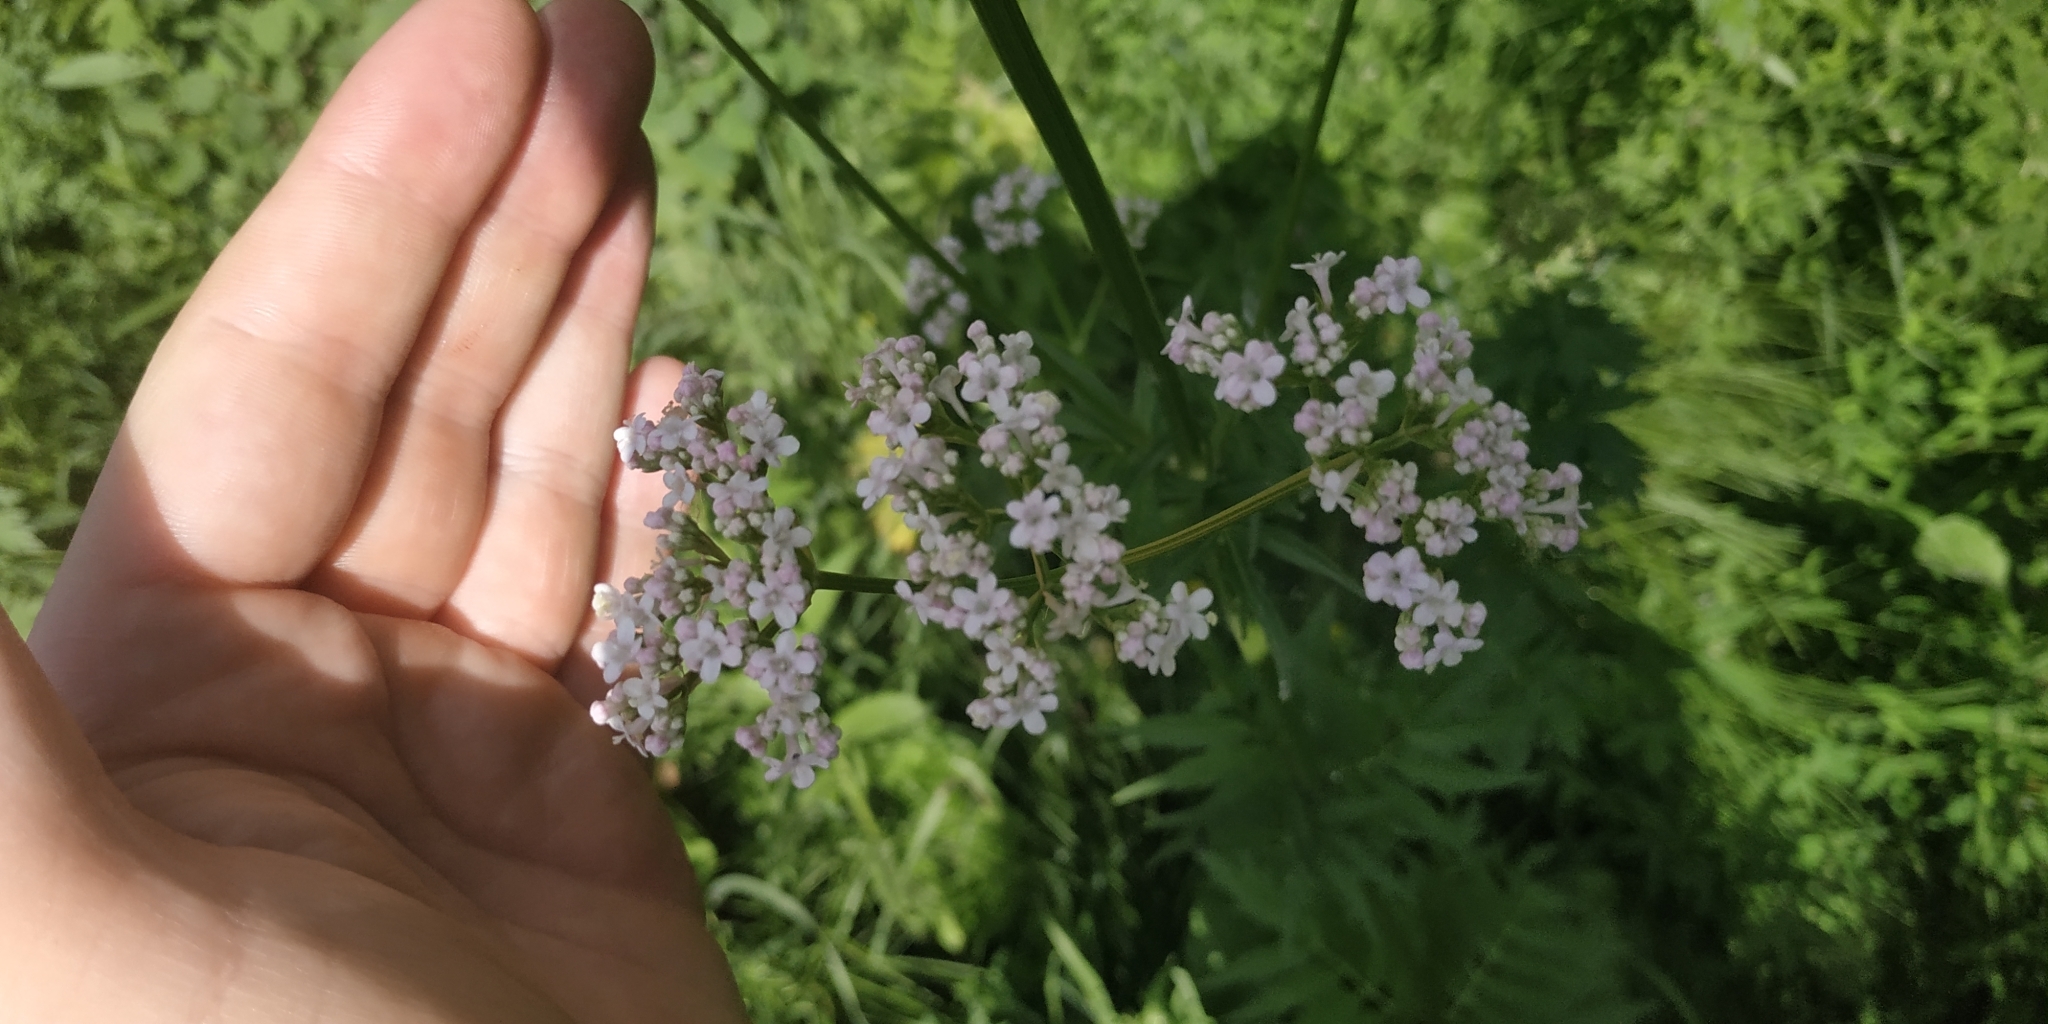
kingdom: Plantae
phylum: Tracheophyta
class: Magnoliopsida
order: Dipsacales
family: Caprifoliaceae
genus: Valeriana
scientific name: Valeriana wolgensis
